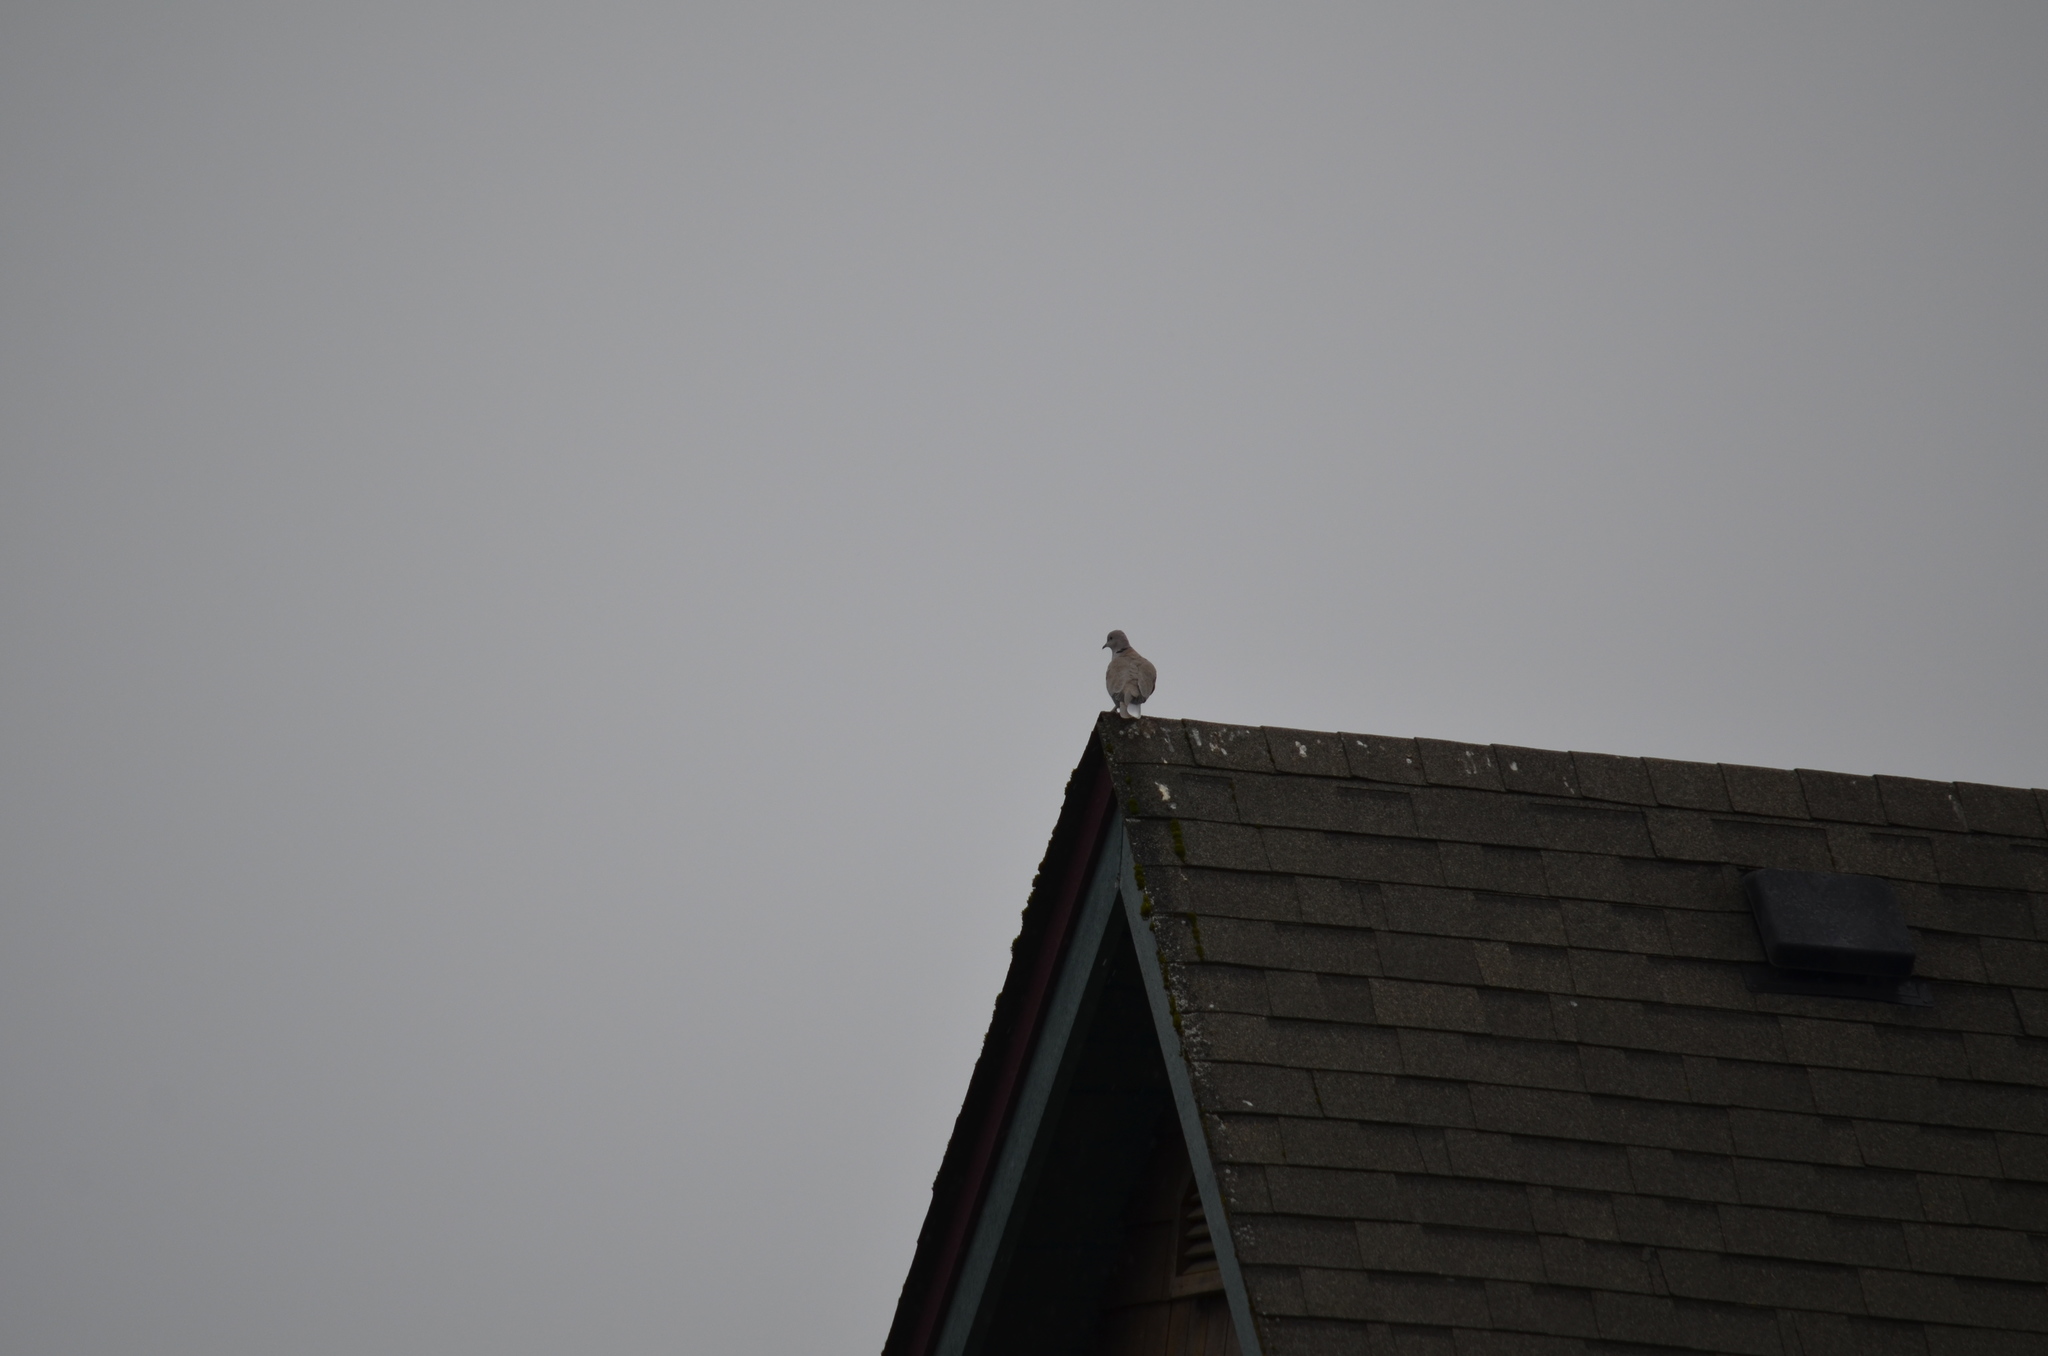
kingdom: Animalia
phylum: Chordata
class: Aves
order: Columbiformes
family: Columbidae
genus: Streptopelia
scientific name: Streptopelia decaocto
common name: Eurasian collared dove
